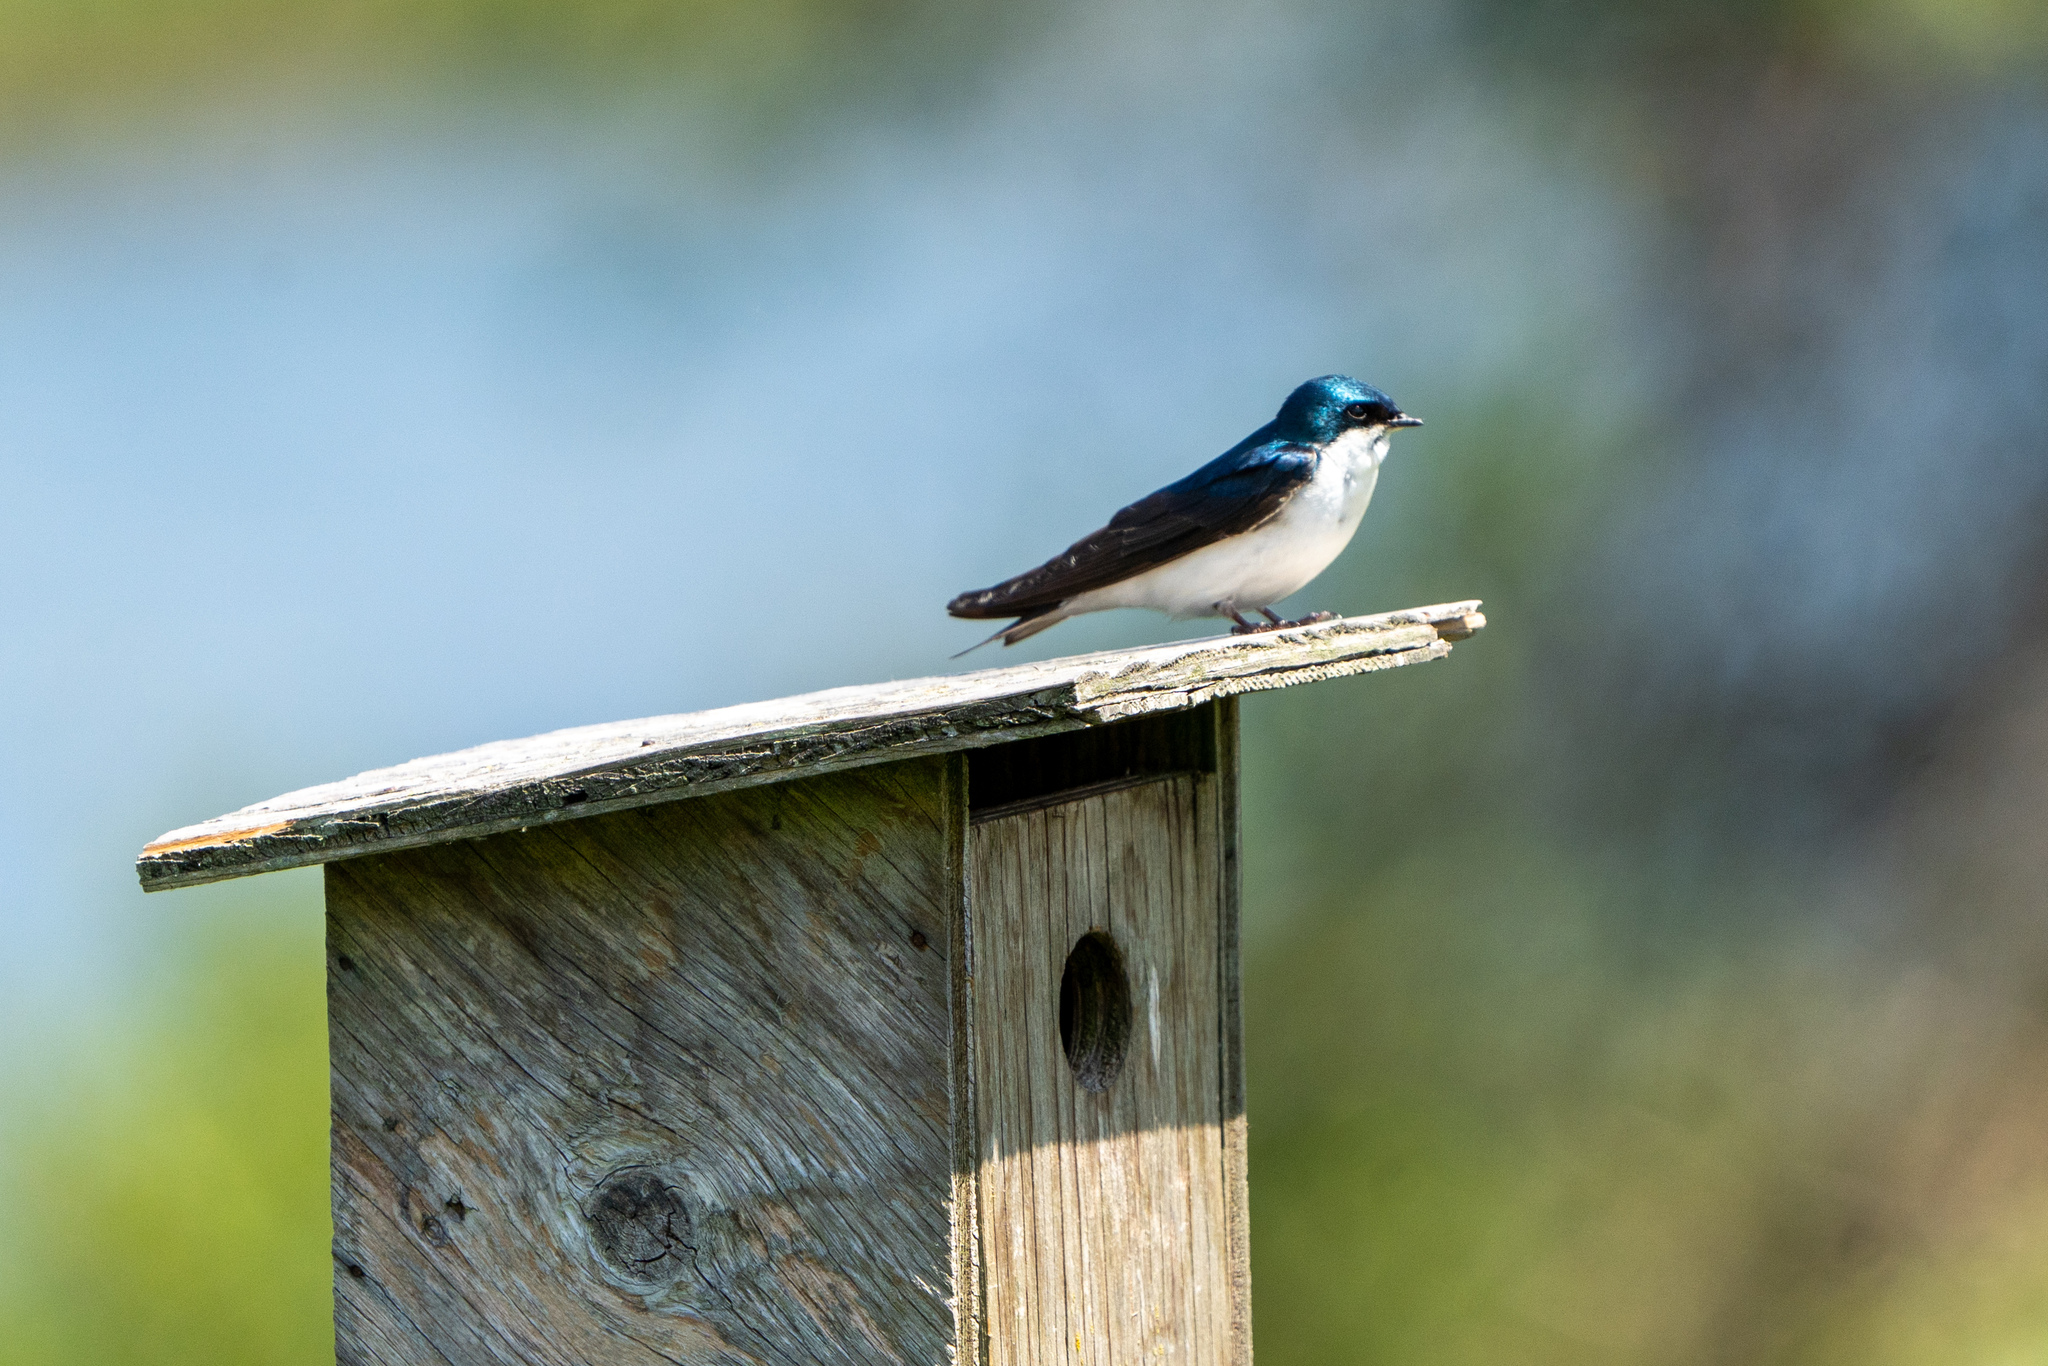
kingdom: Animalia
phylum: Chordata
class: Aves
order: Passeriformes
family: Hirundinidae
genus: Tachycineta
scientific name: Tachycineta bicolor
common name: Tree swallow
